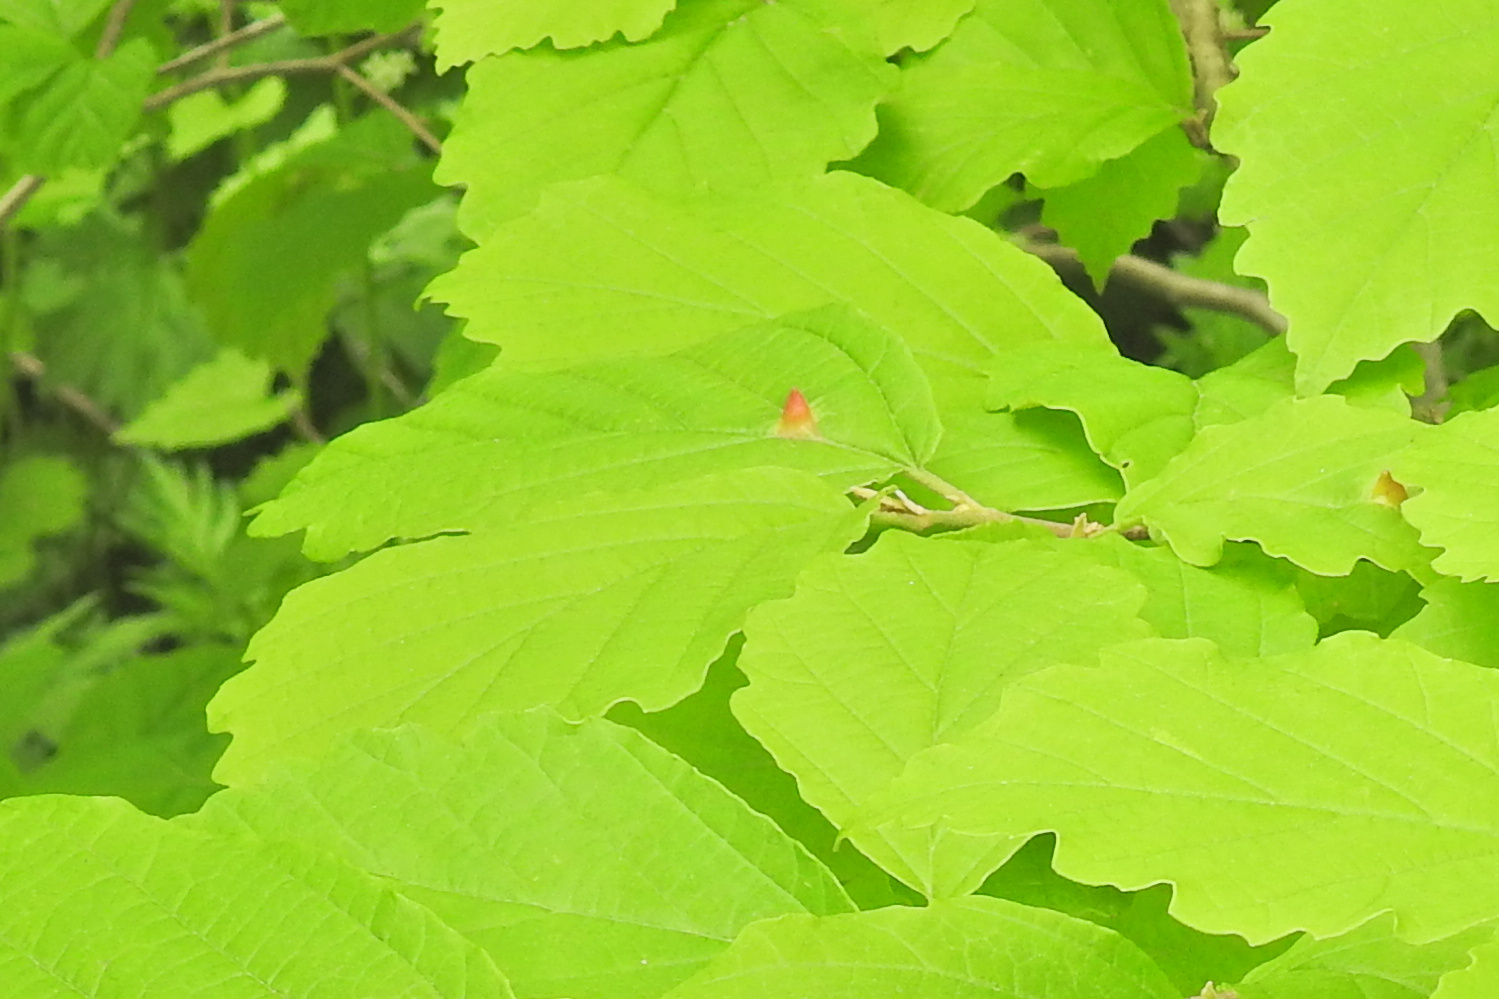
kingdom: Animalia
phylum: Arthropoda
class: Insecta
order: Hemiptera
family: Aphididae
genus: Hormaphis
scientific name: Hormaphis hamamelidis
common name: Witch-hazel cone gall aphid
